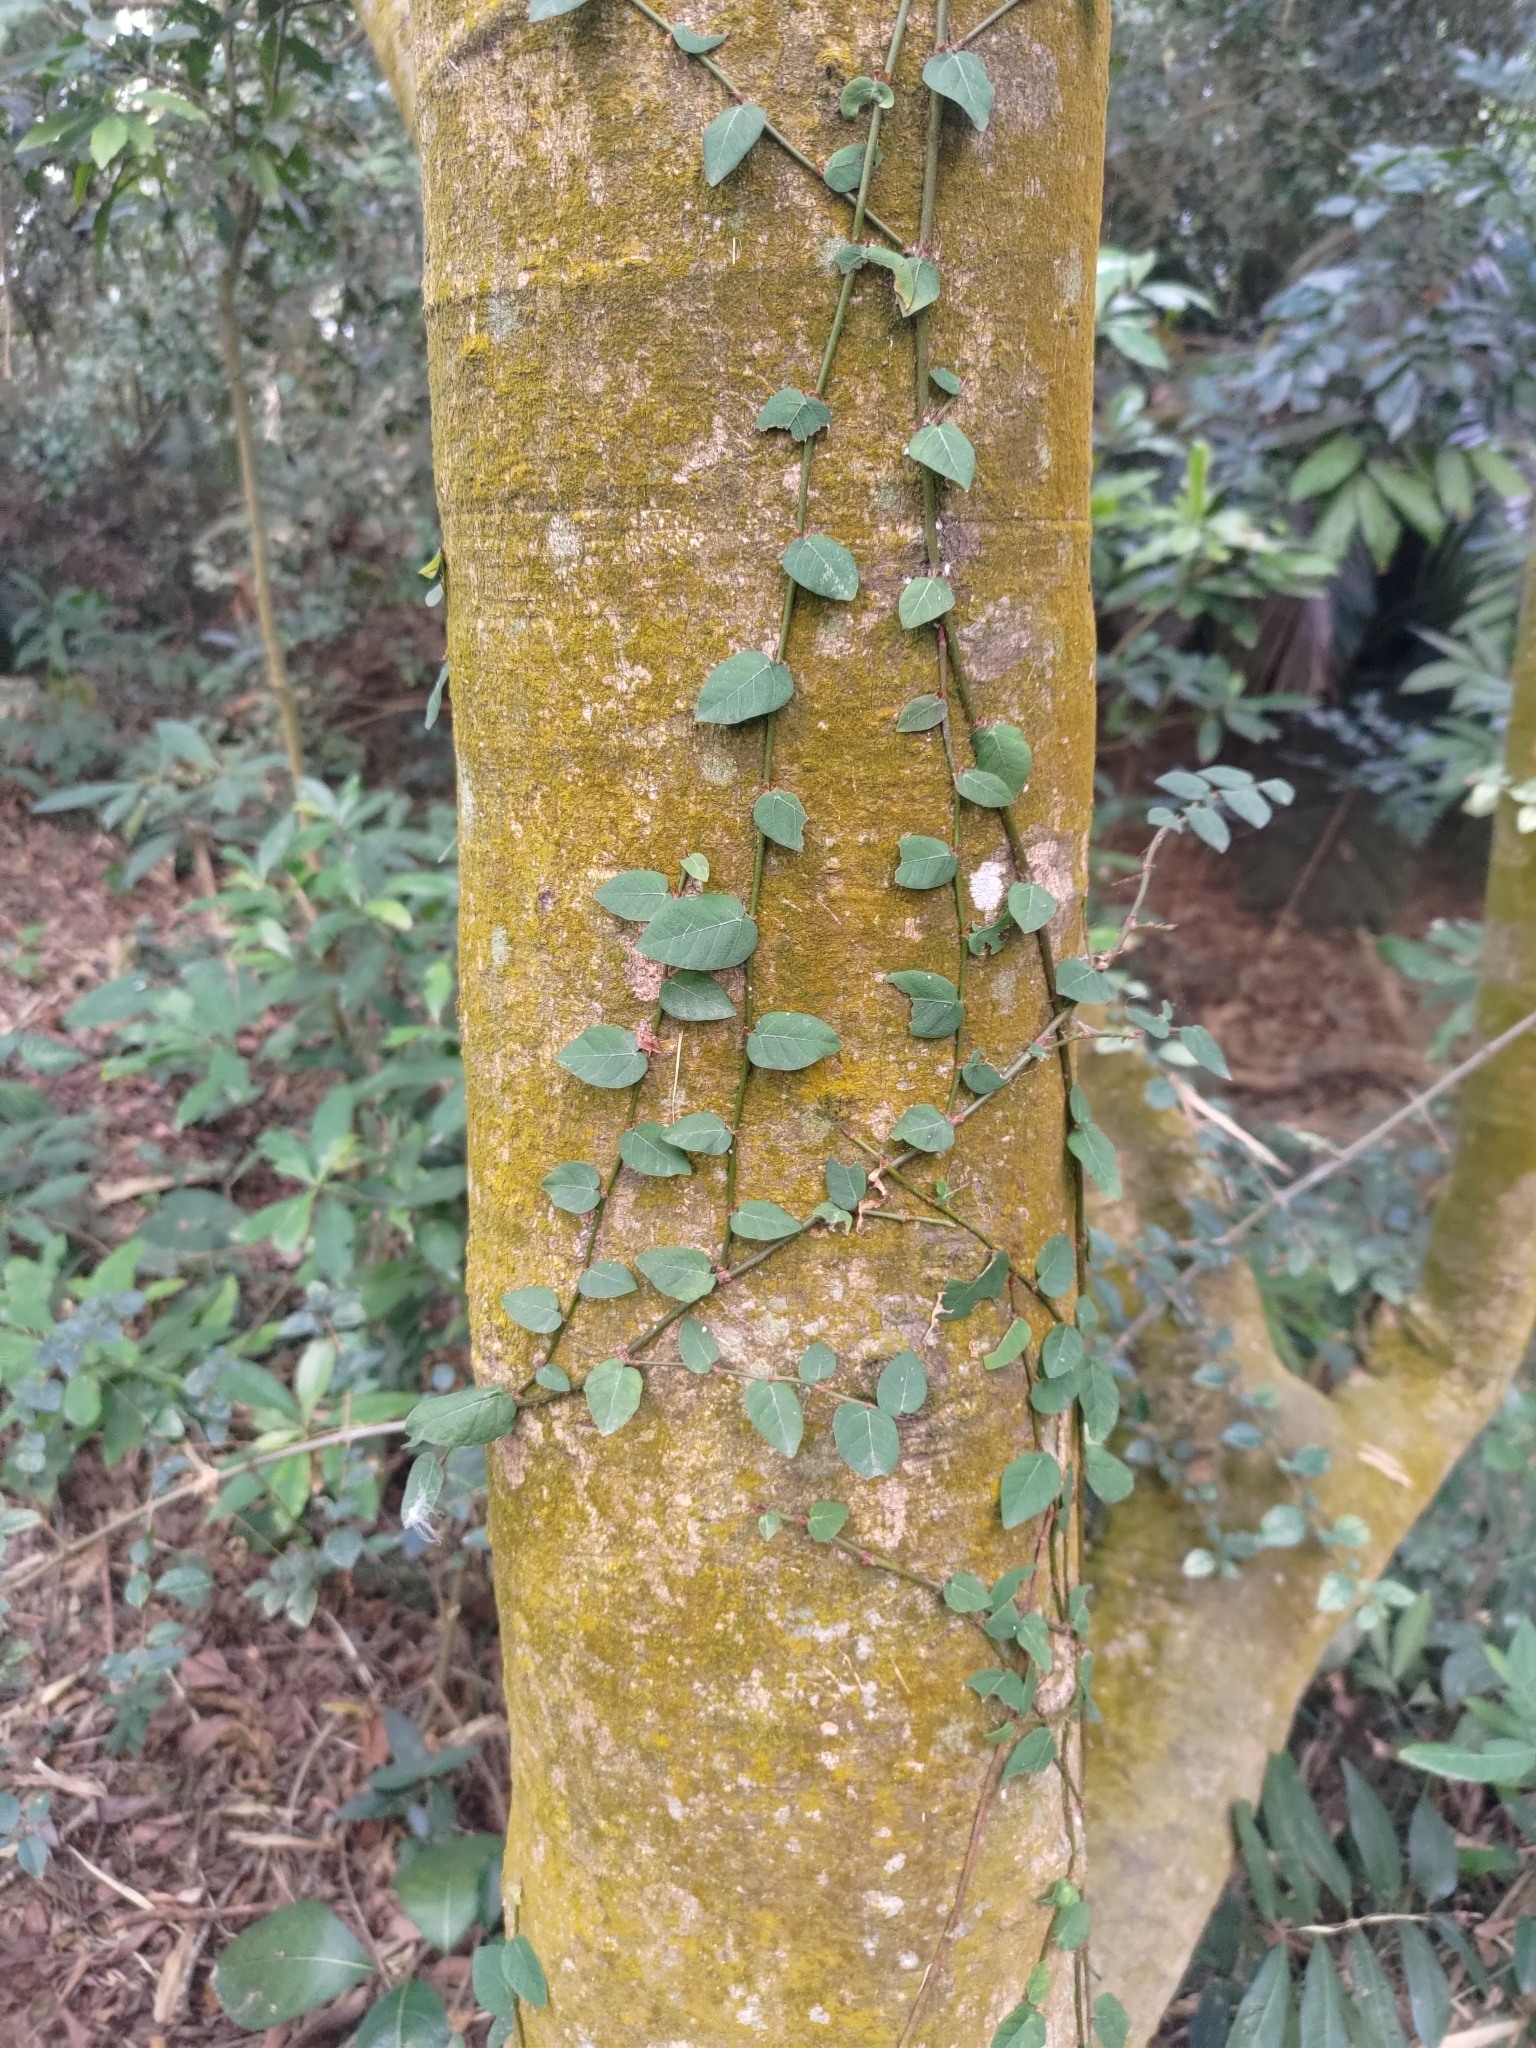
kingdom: Plantae
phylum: Tracheophyta
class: Magnoliopsida
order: Rosales
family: Moraceae
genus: Ficus
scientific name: Ficus pumila
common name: Climbingfig
